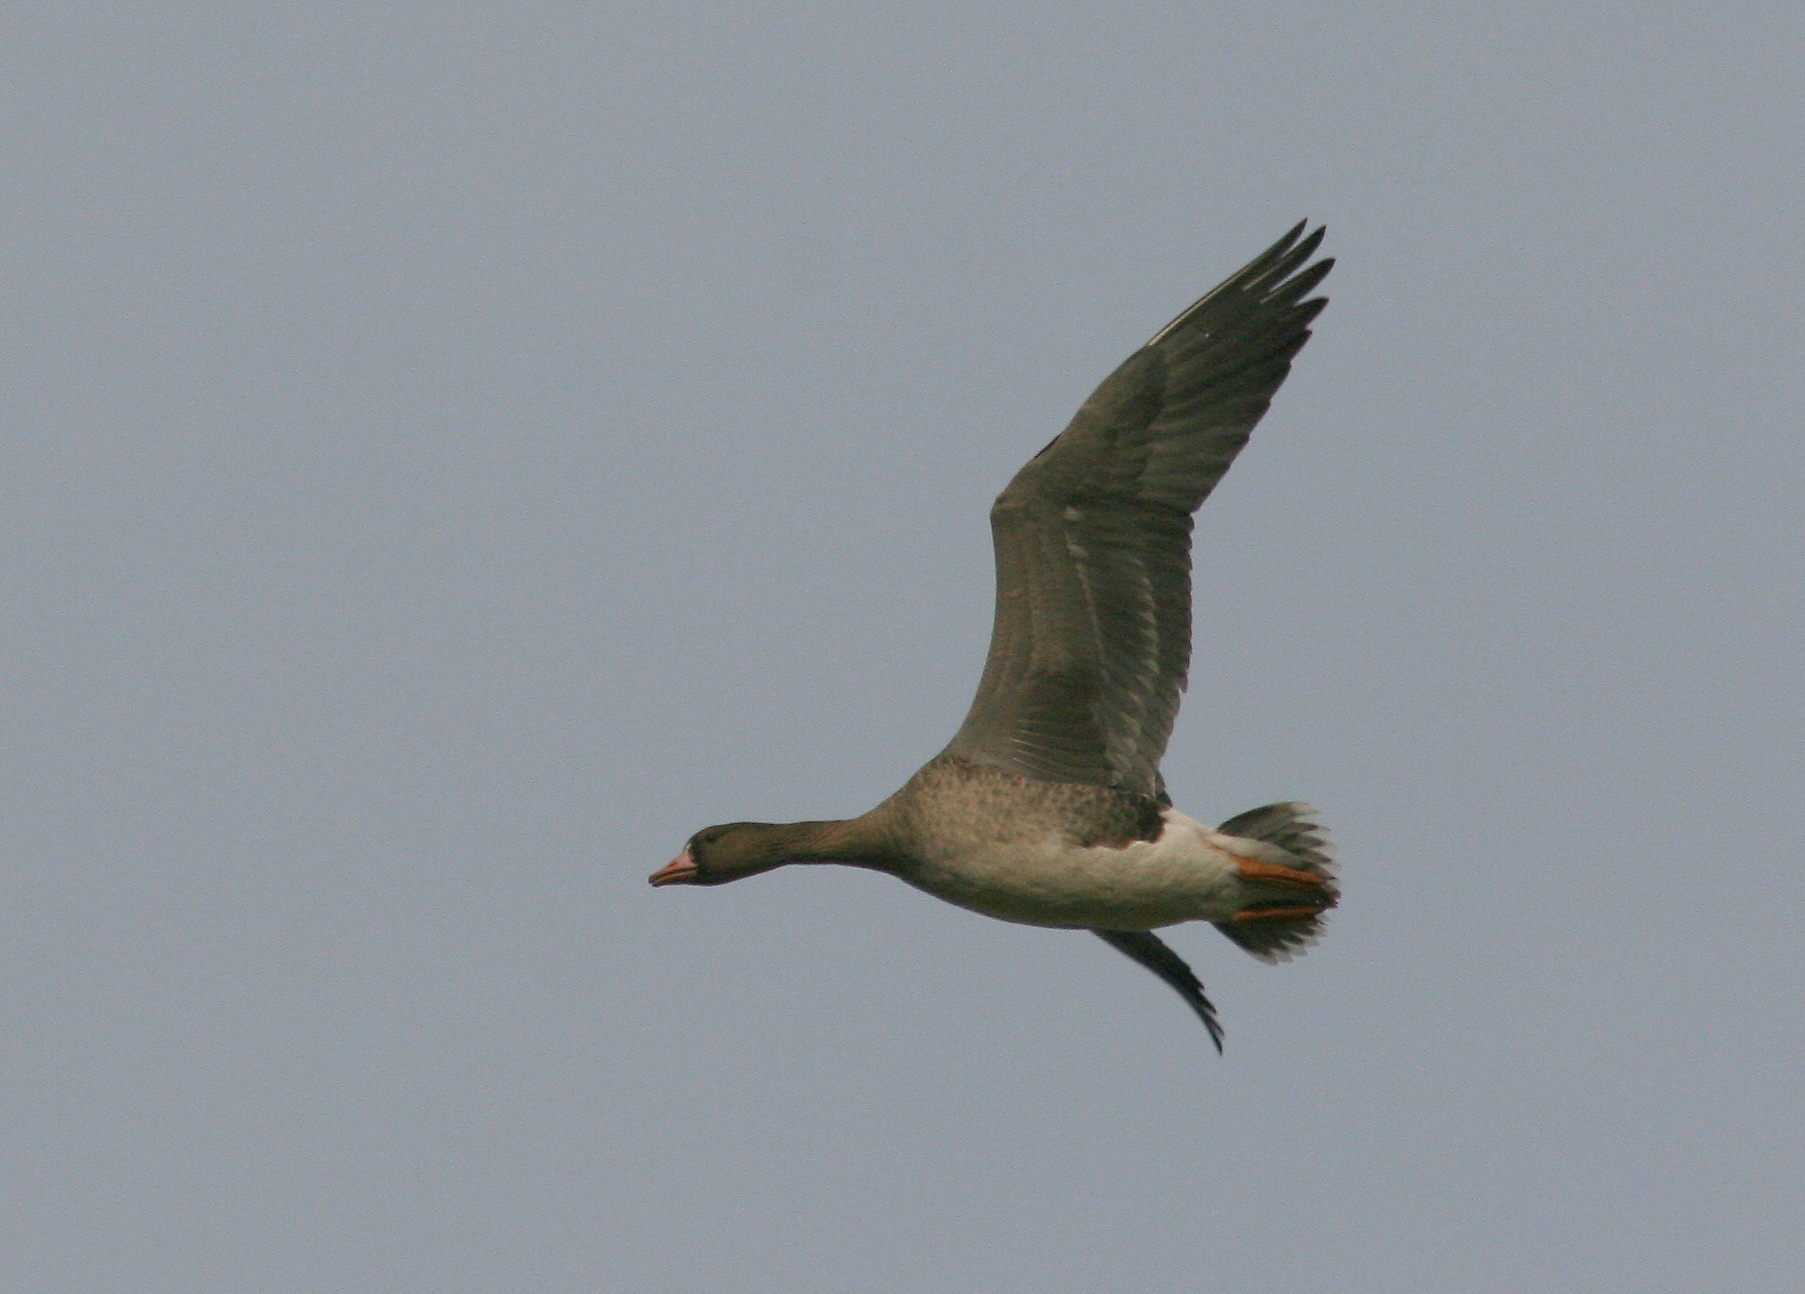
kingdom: Animalia
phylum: Chordata
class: Aves
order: Anseriformes
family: Anatidae
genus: Anser
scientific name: Anser albifrons
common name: Greater white-fronted goose
